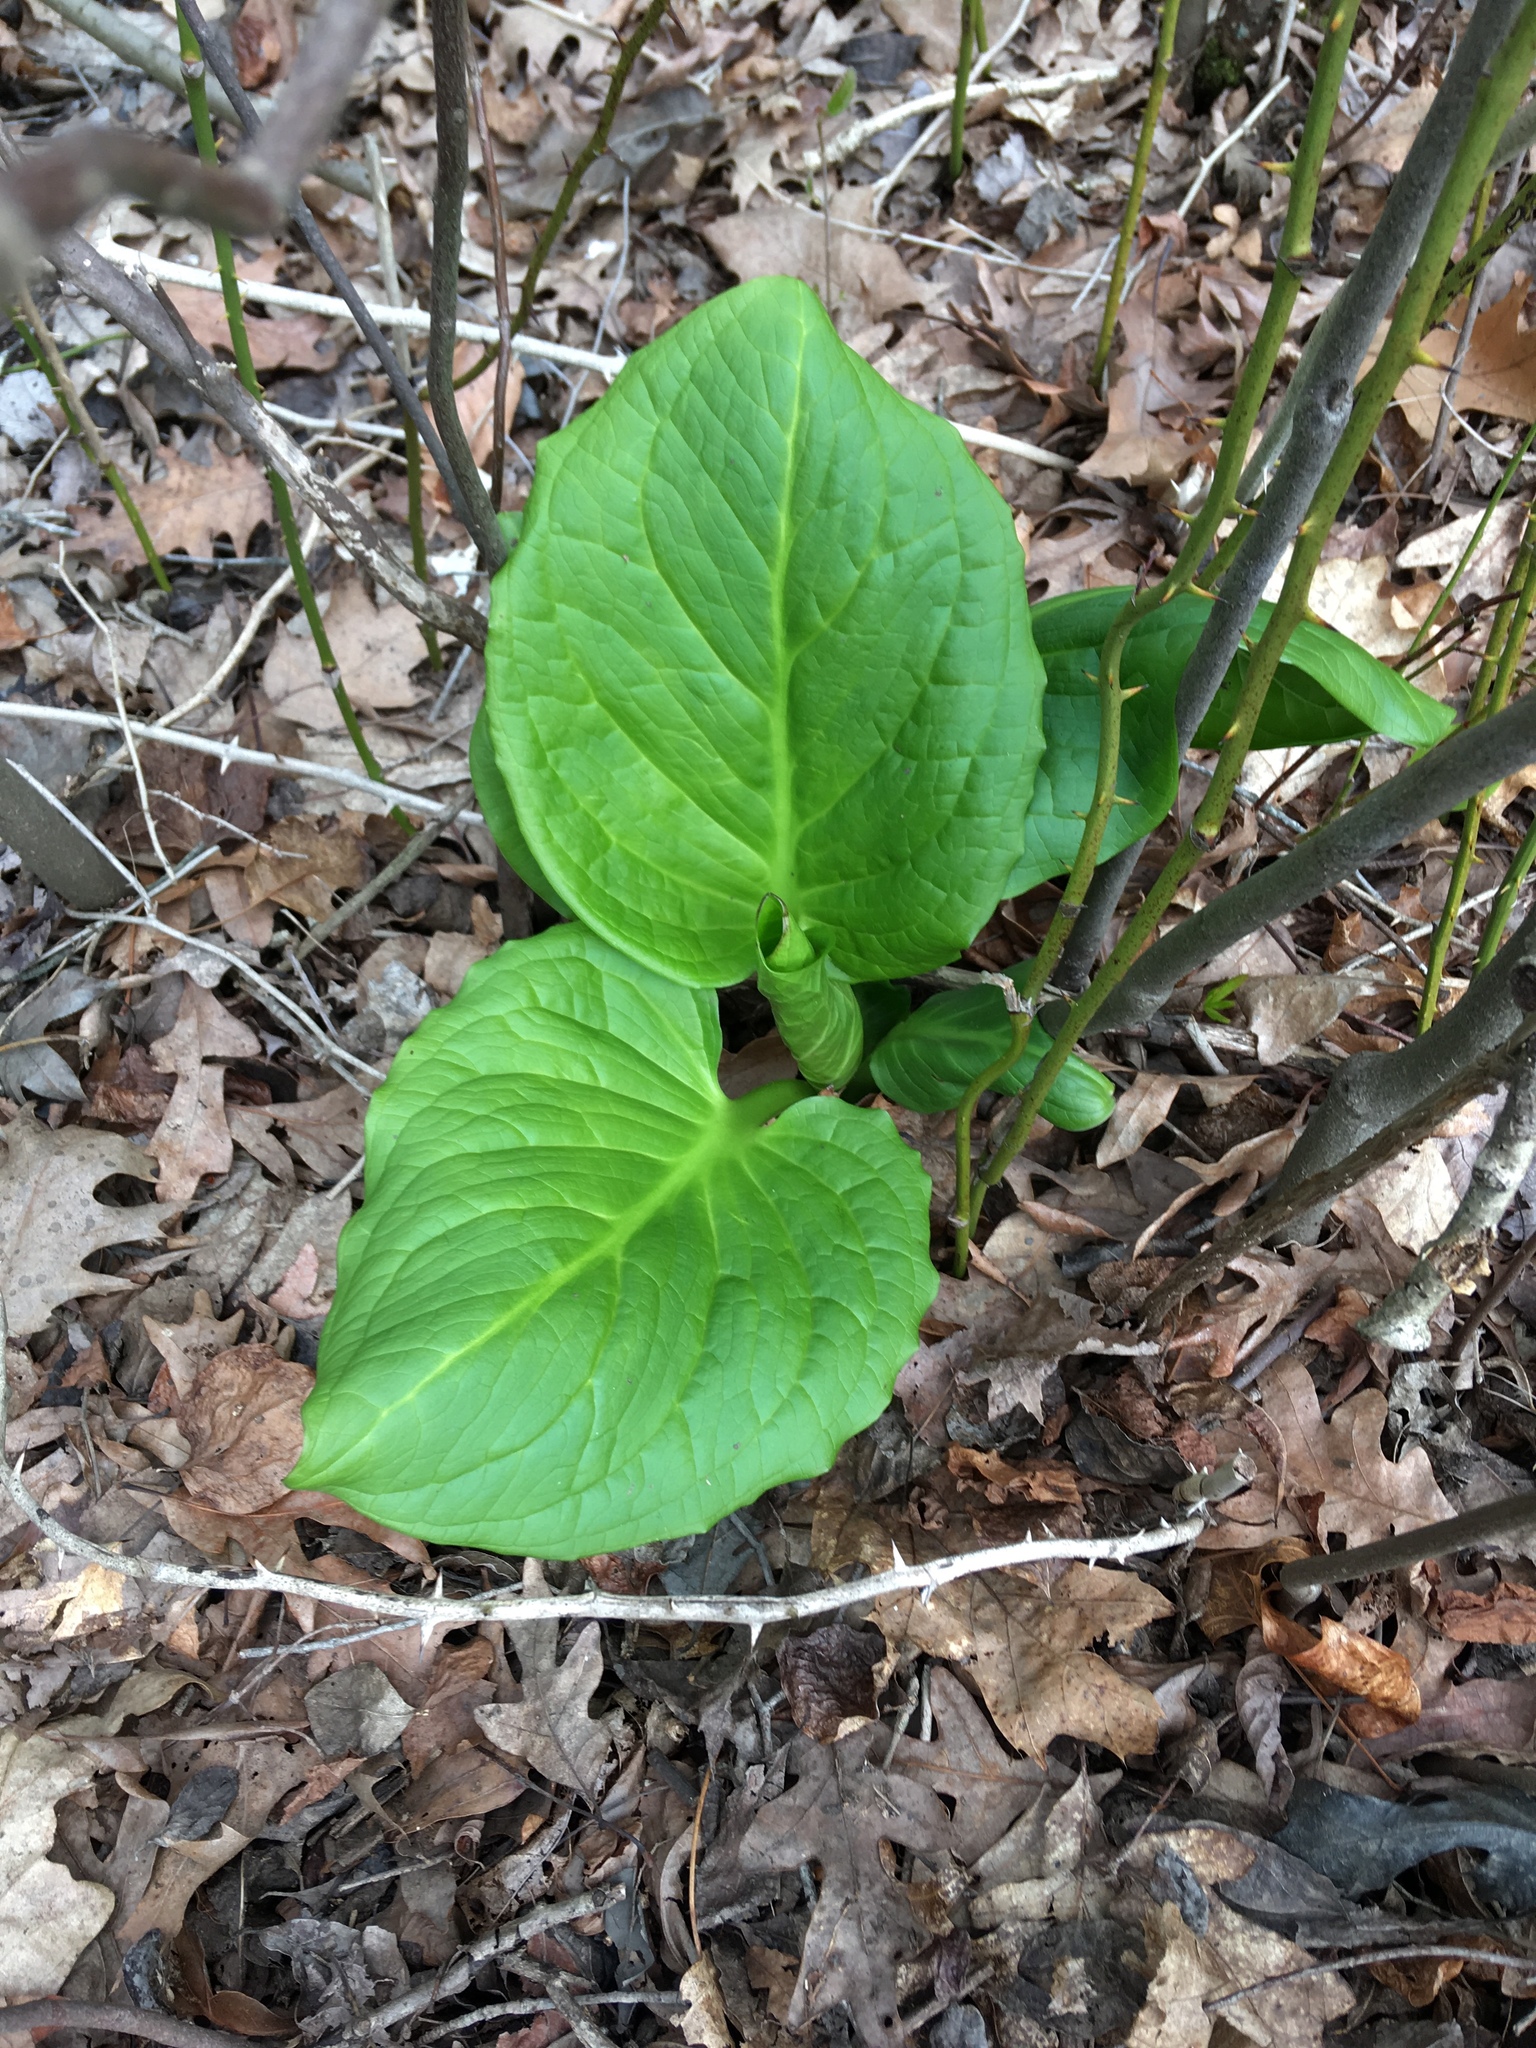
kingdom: Plantae
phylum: Tracheophyta
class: Liliopsida
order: Alismatales
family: Araceae
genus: Symplocarpus
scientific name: Symplocarpus foetidus
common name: Eastern skunk cabbage
